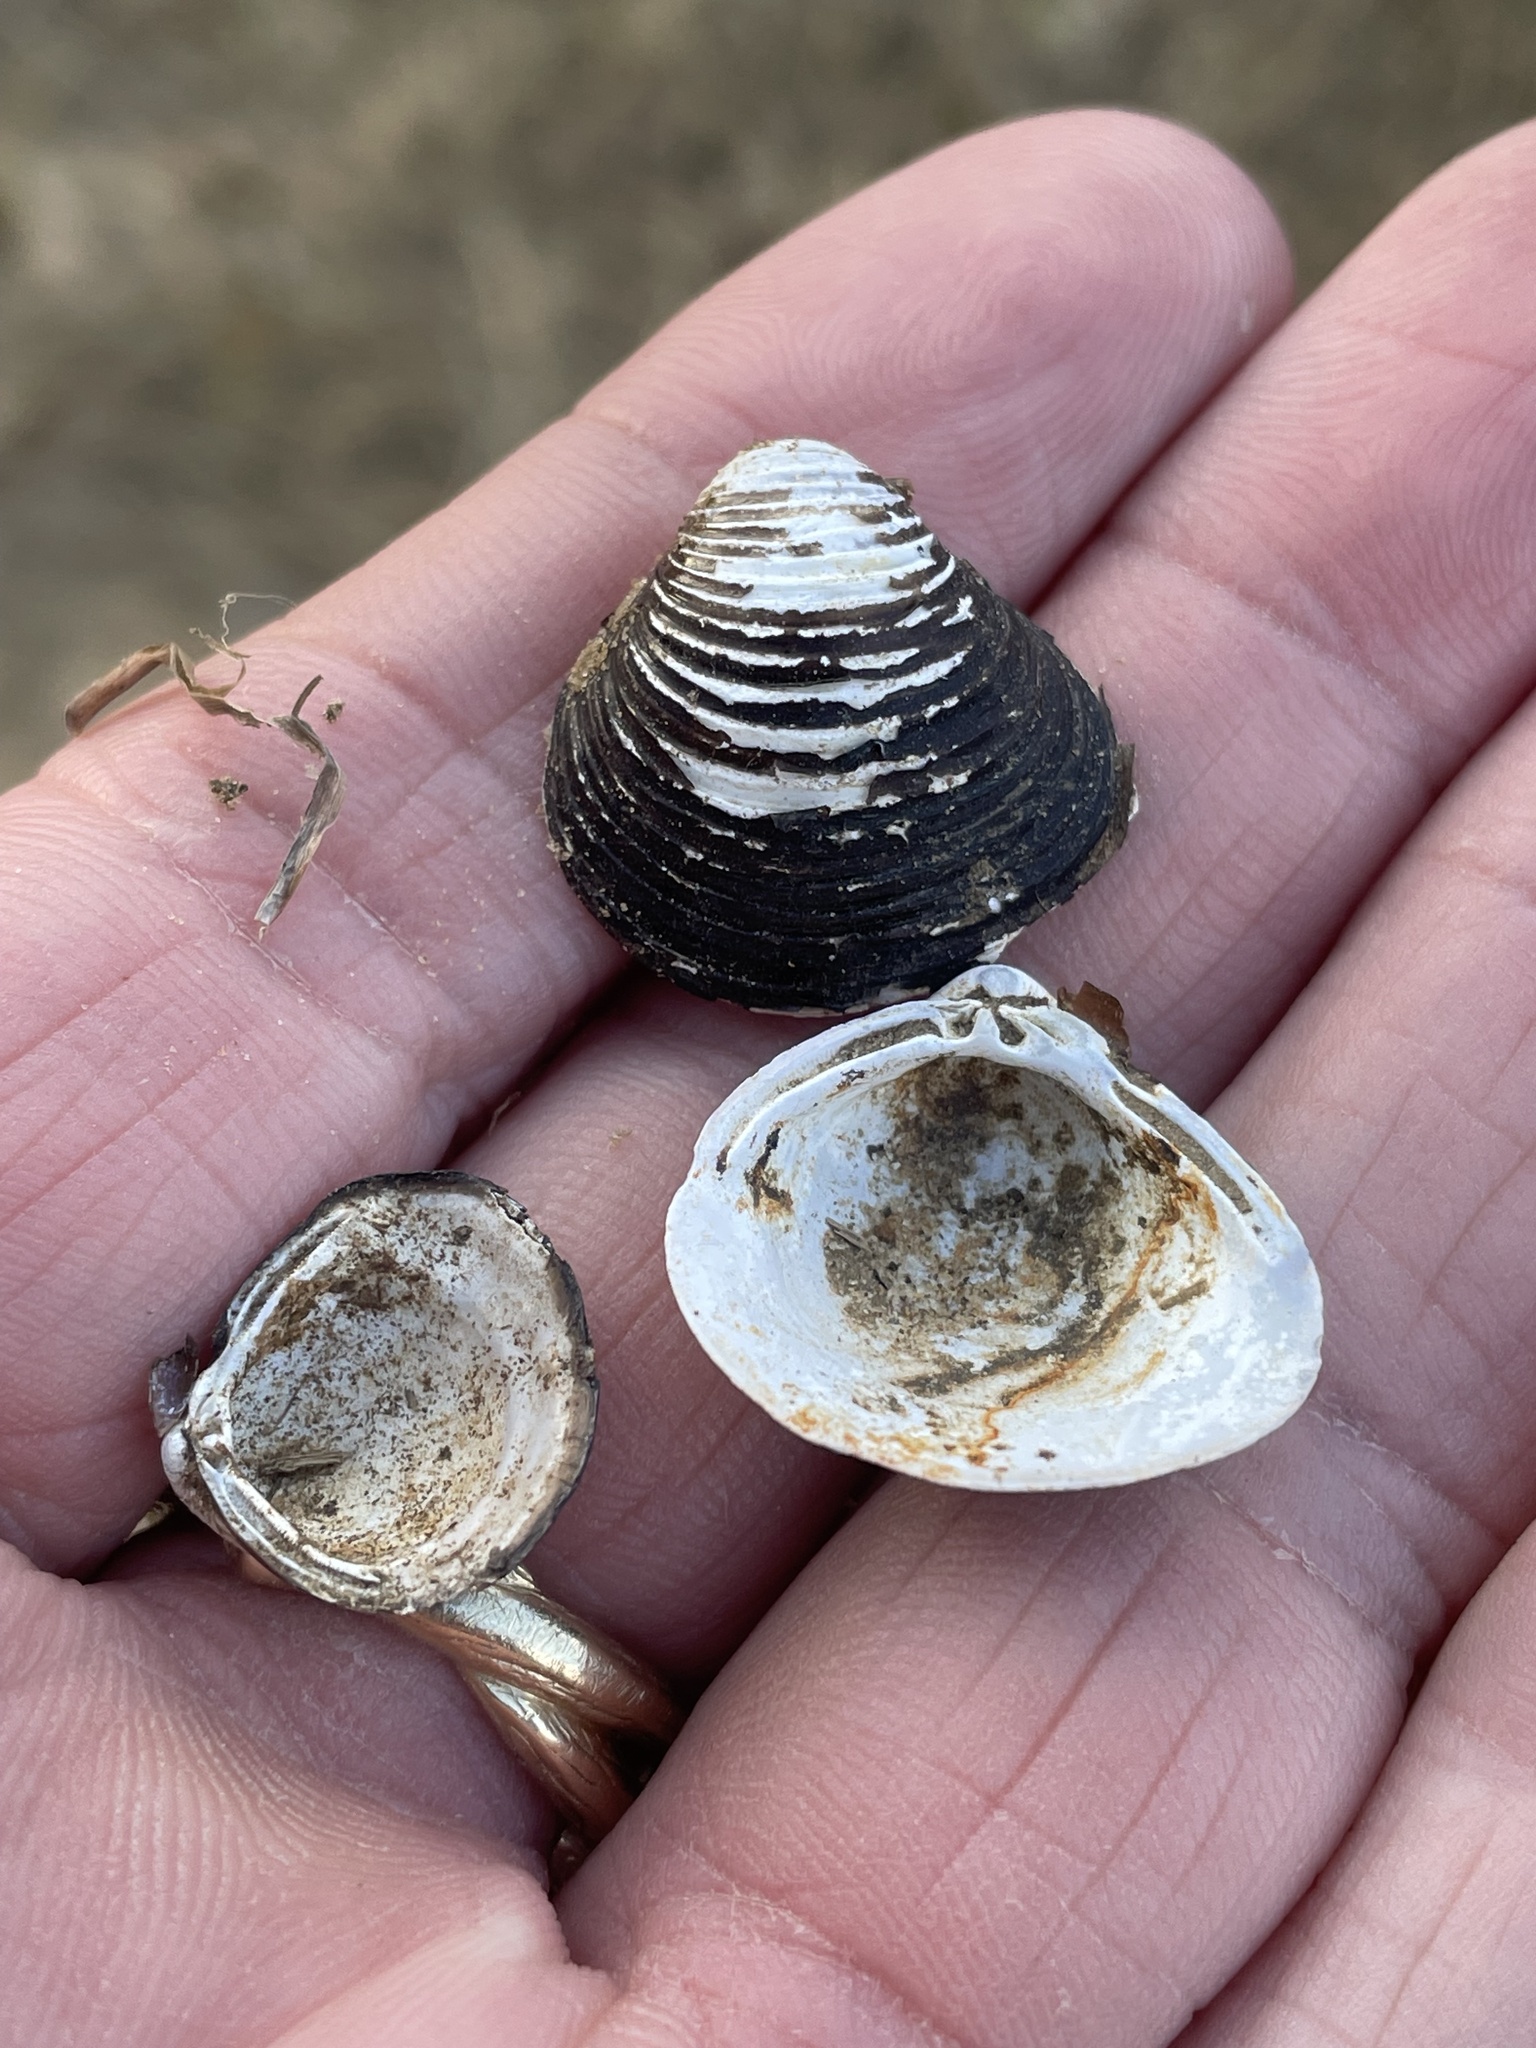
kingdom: Animalia
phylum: Mollusca
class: Bivalvia
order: Venerida
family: Cyrenidae
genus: Corbicula
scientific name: Corbicula fluminea
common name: Asian clam
